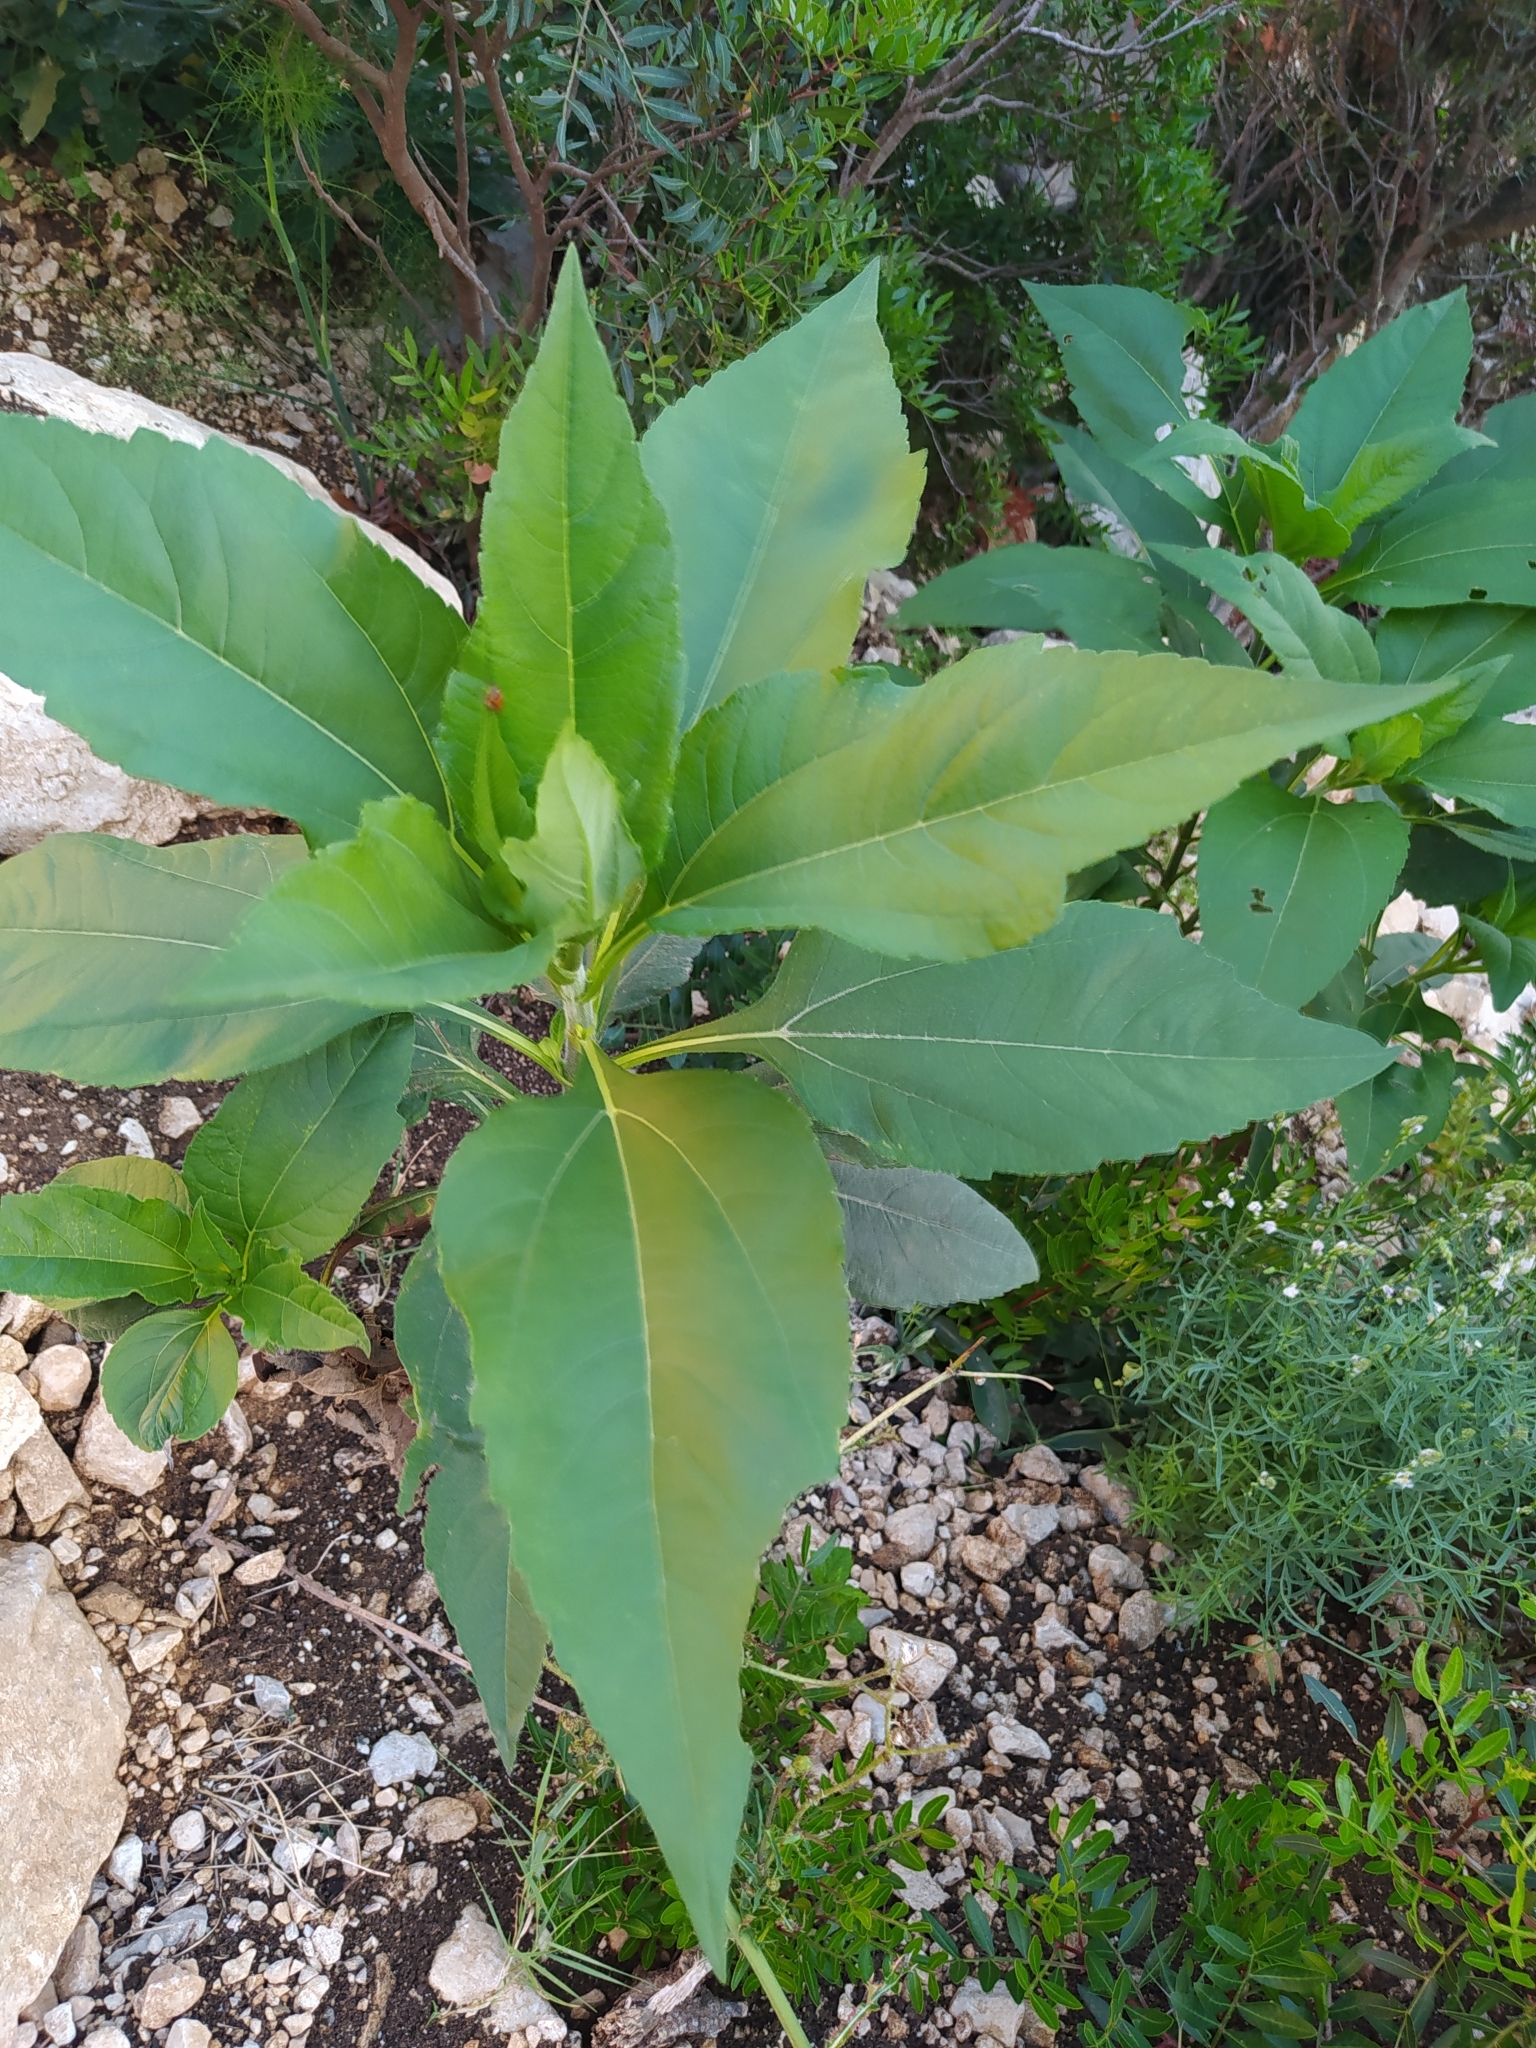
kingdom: Plantae
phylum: Tracheophyta
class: Magnoliopsida
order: Asterales
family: Asteraceae
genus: Helianthus
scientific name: Helianthus tuberosus
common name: Jerusalem artichoke
